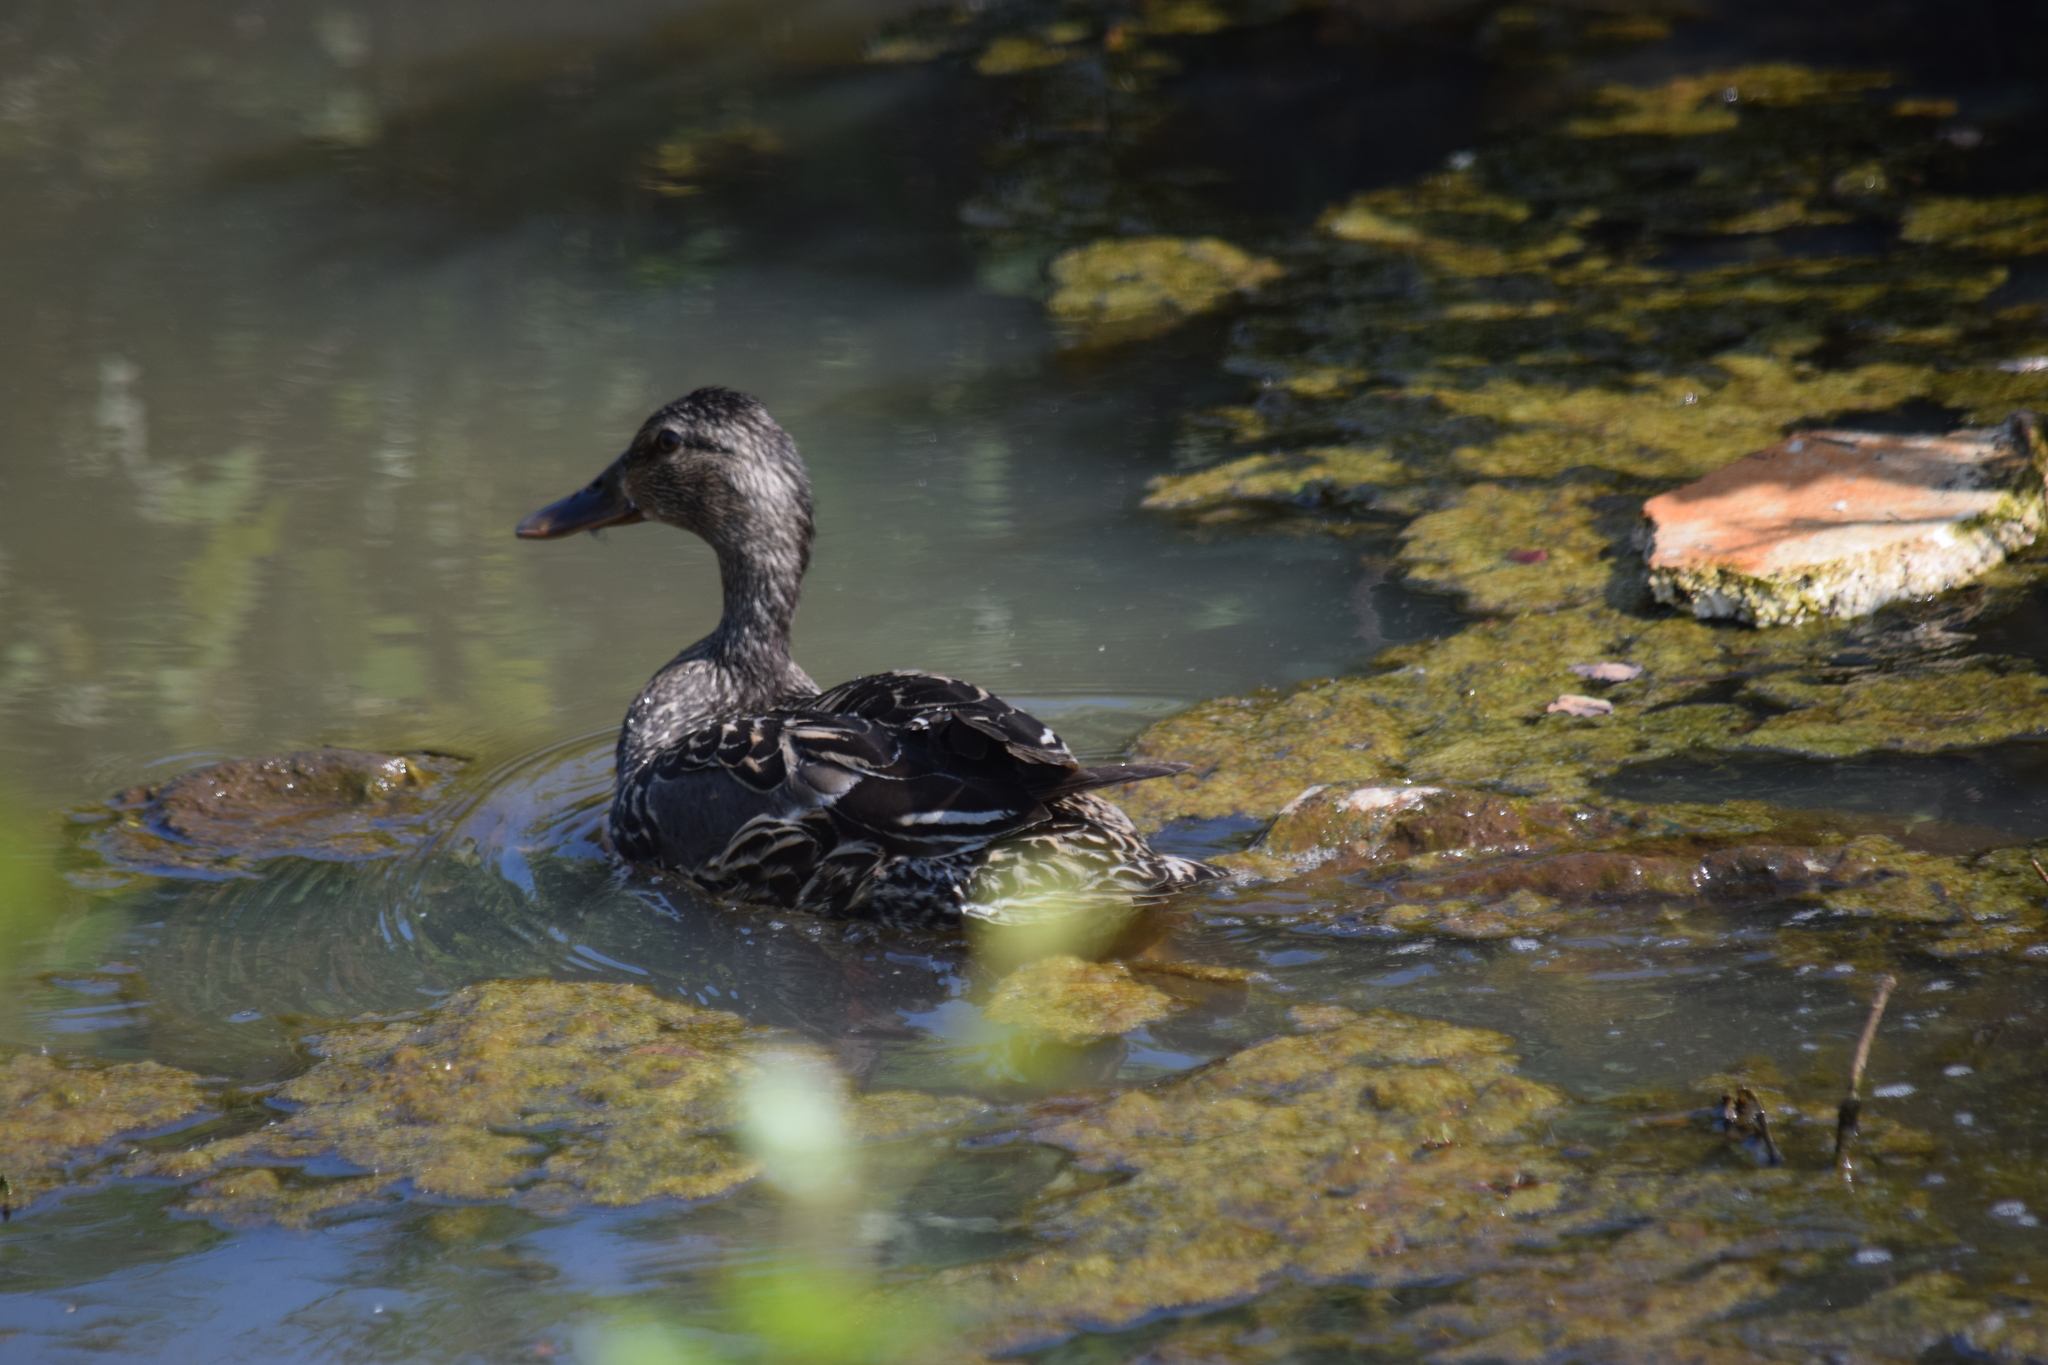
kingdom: Animalia
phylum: Chordata
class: Aves
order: Anseriformes
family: Anatidae
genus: Anas
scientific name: Anas platyrhynchos
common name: Mallard
